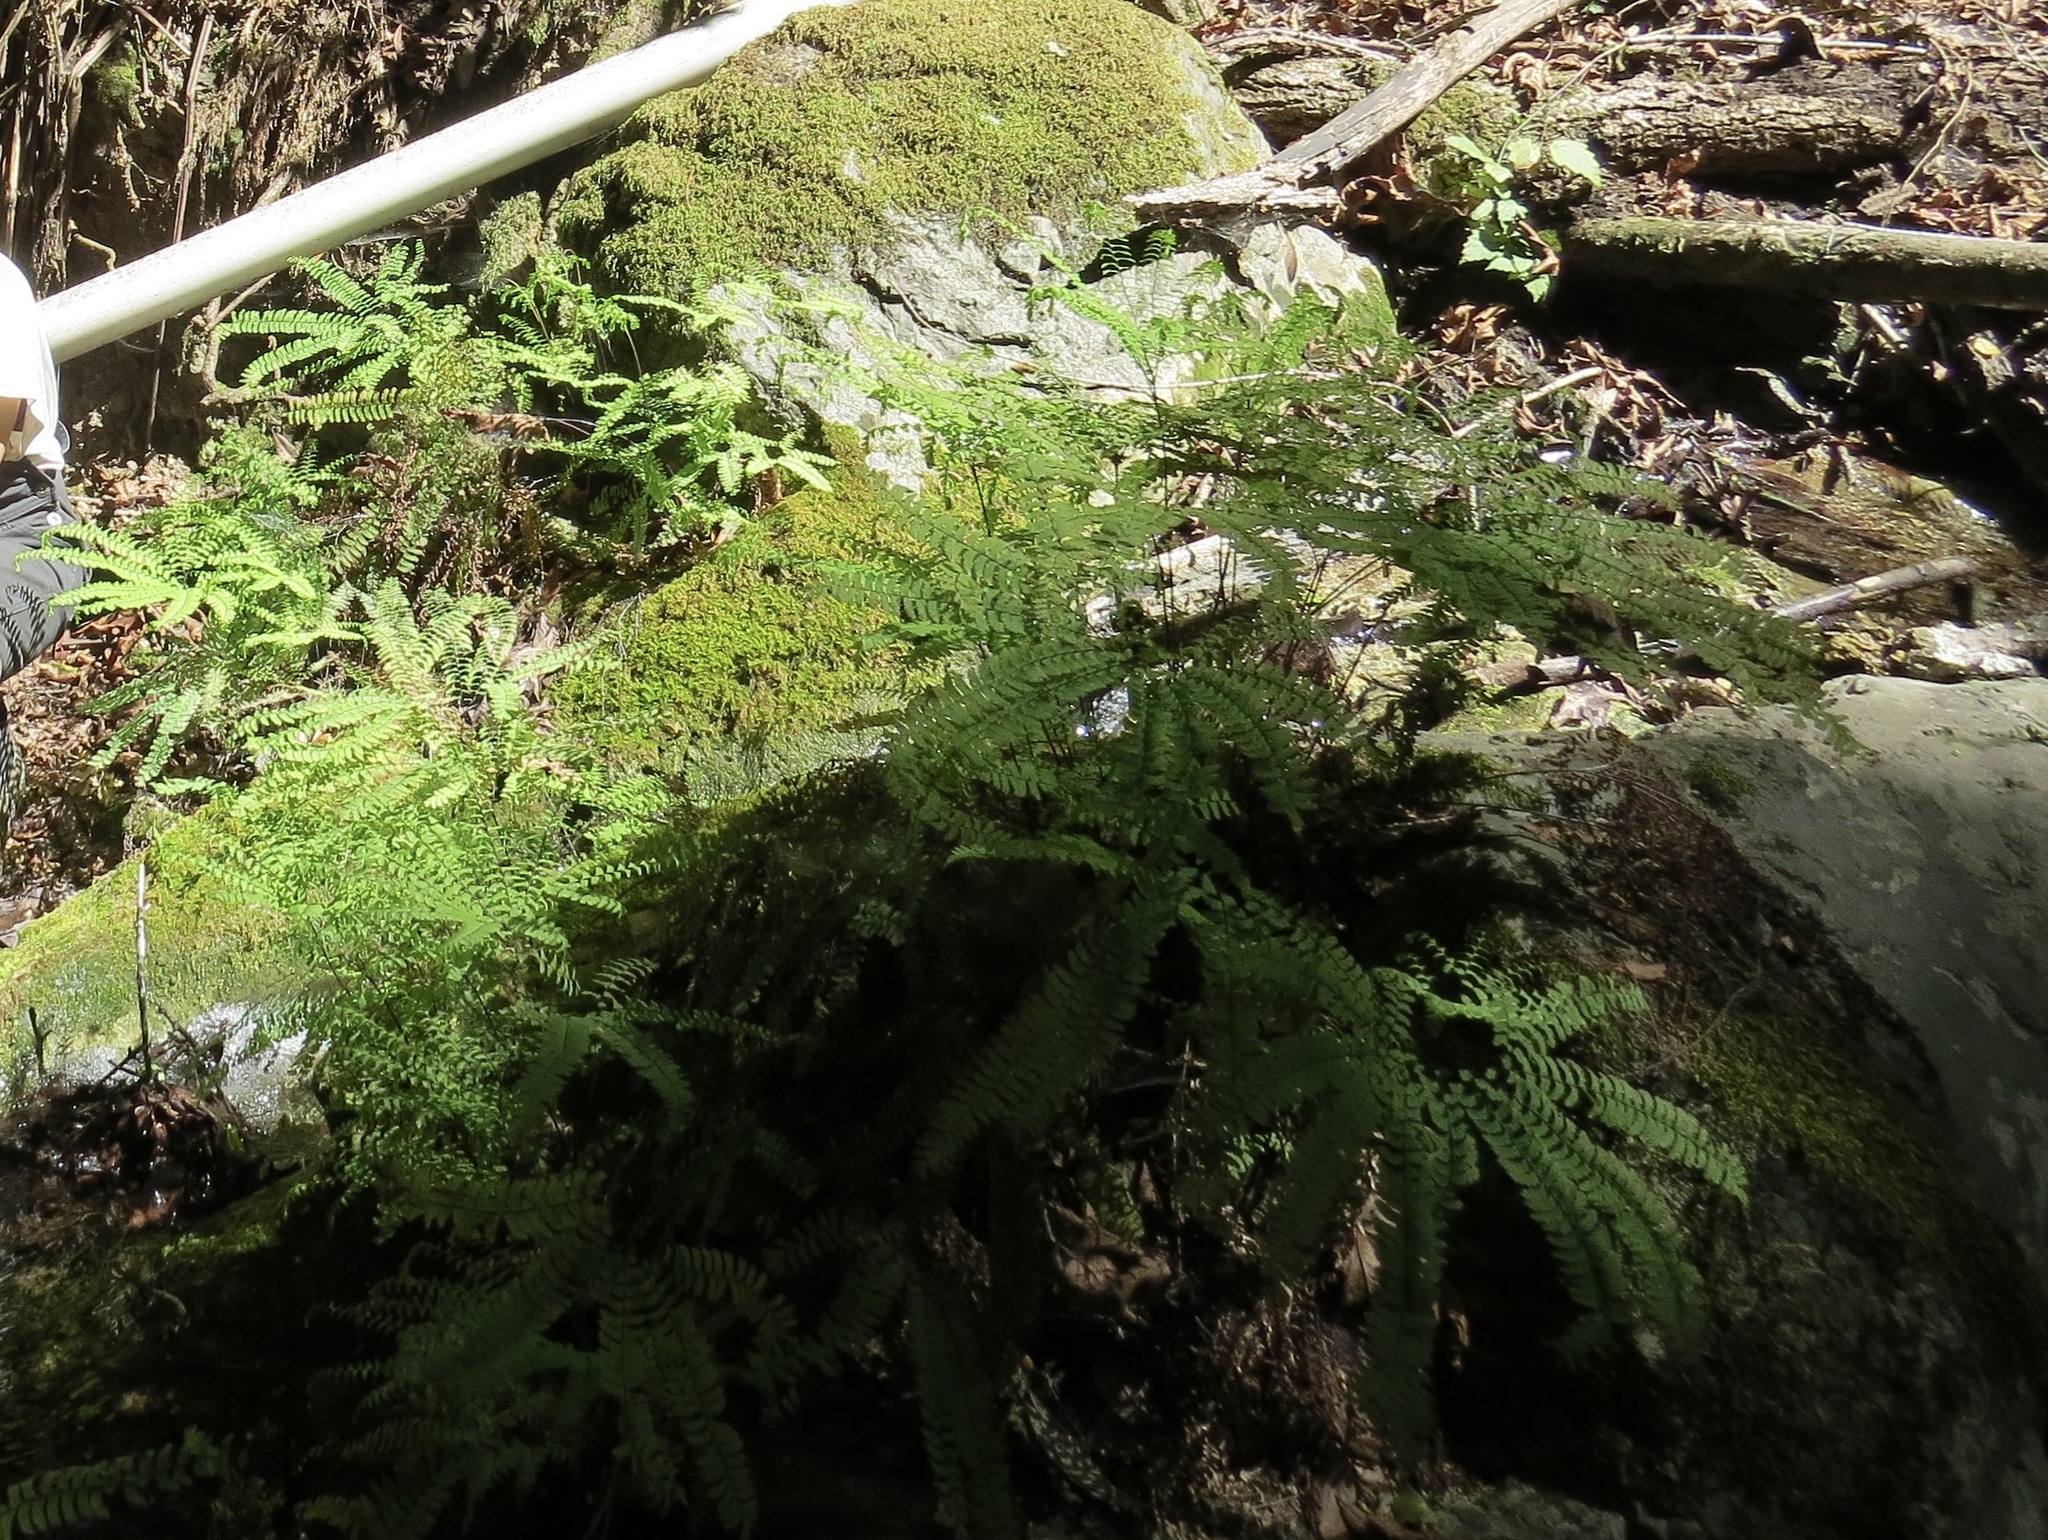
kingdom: Plantae
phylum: Tracheophyta
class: Polypodiopsida
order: Polypodiales
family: Pteridaceae
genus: Adiantum
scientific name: Adiantum aleuticum
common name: Aleutian maidenhair fern
